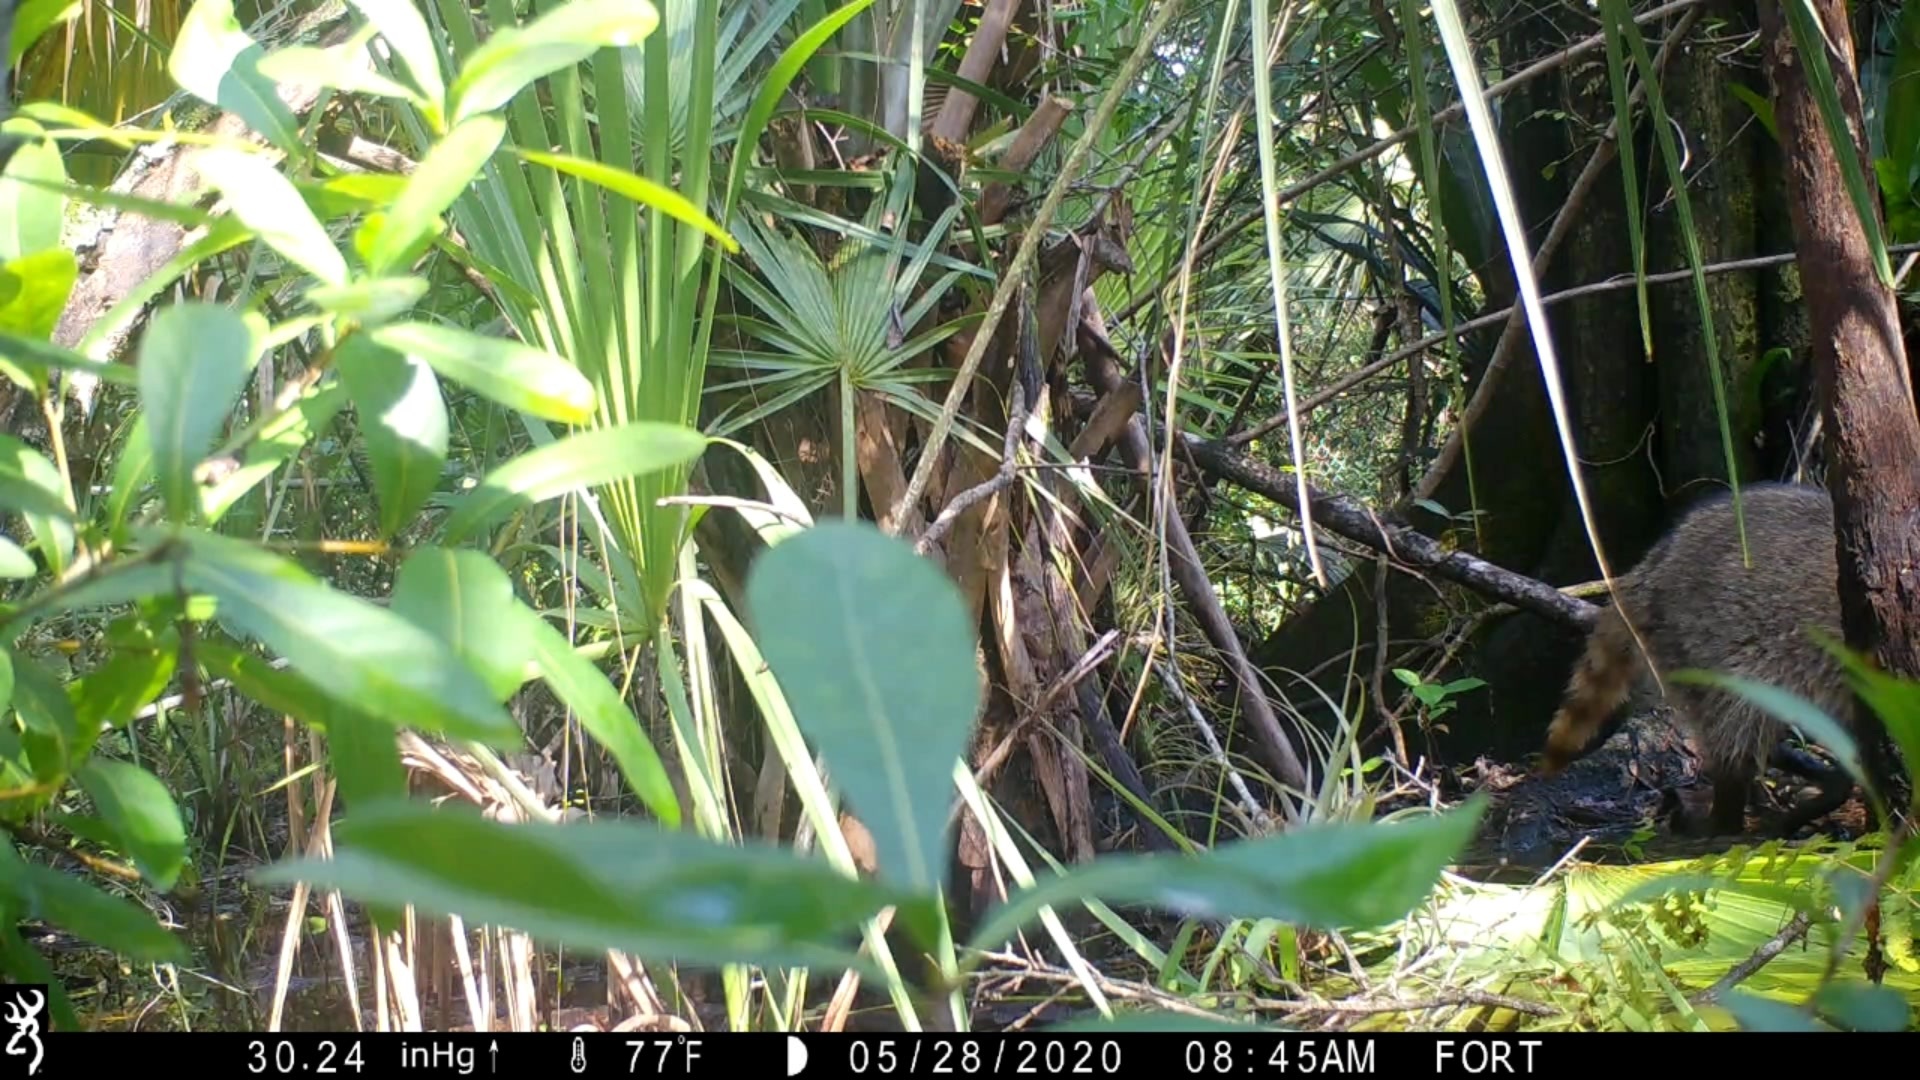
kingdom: Animalia
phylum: Chordata
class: Mammalia
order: Carnivora
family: Procyonidae
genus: Procyon
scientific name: Procyon lotor
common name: Raccoon
